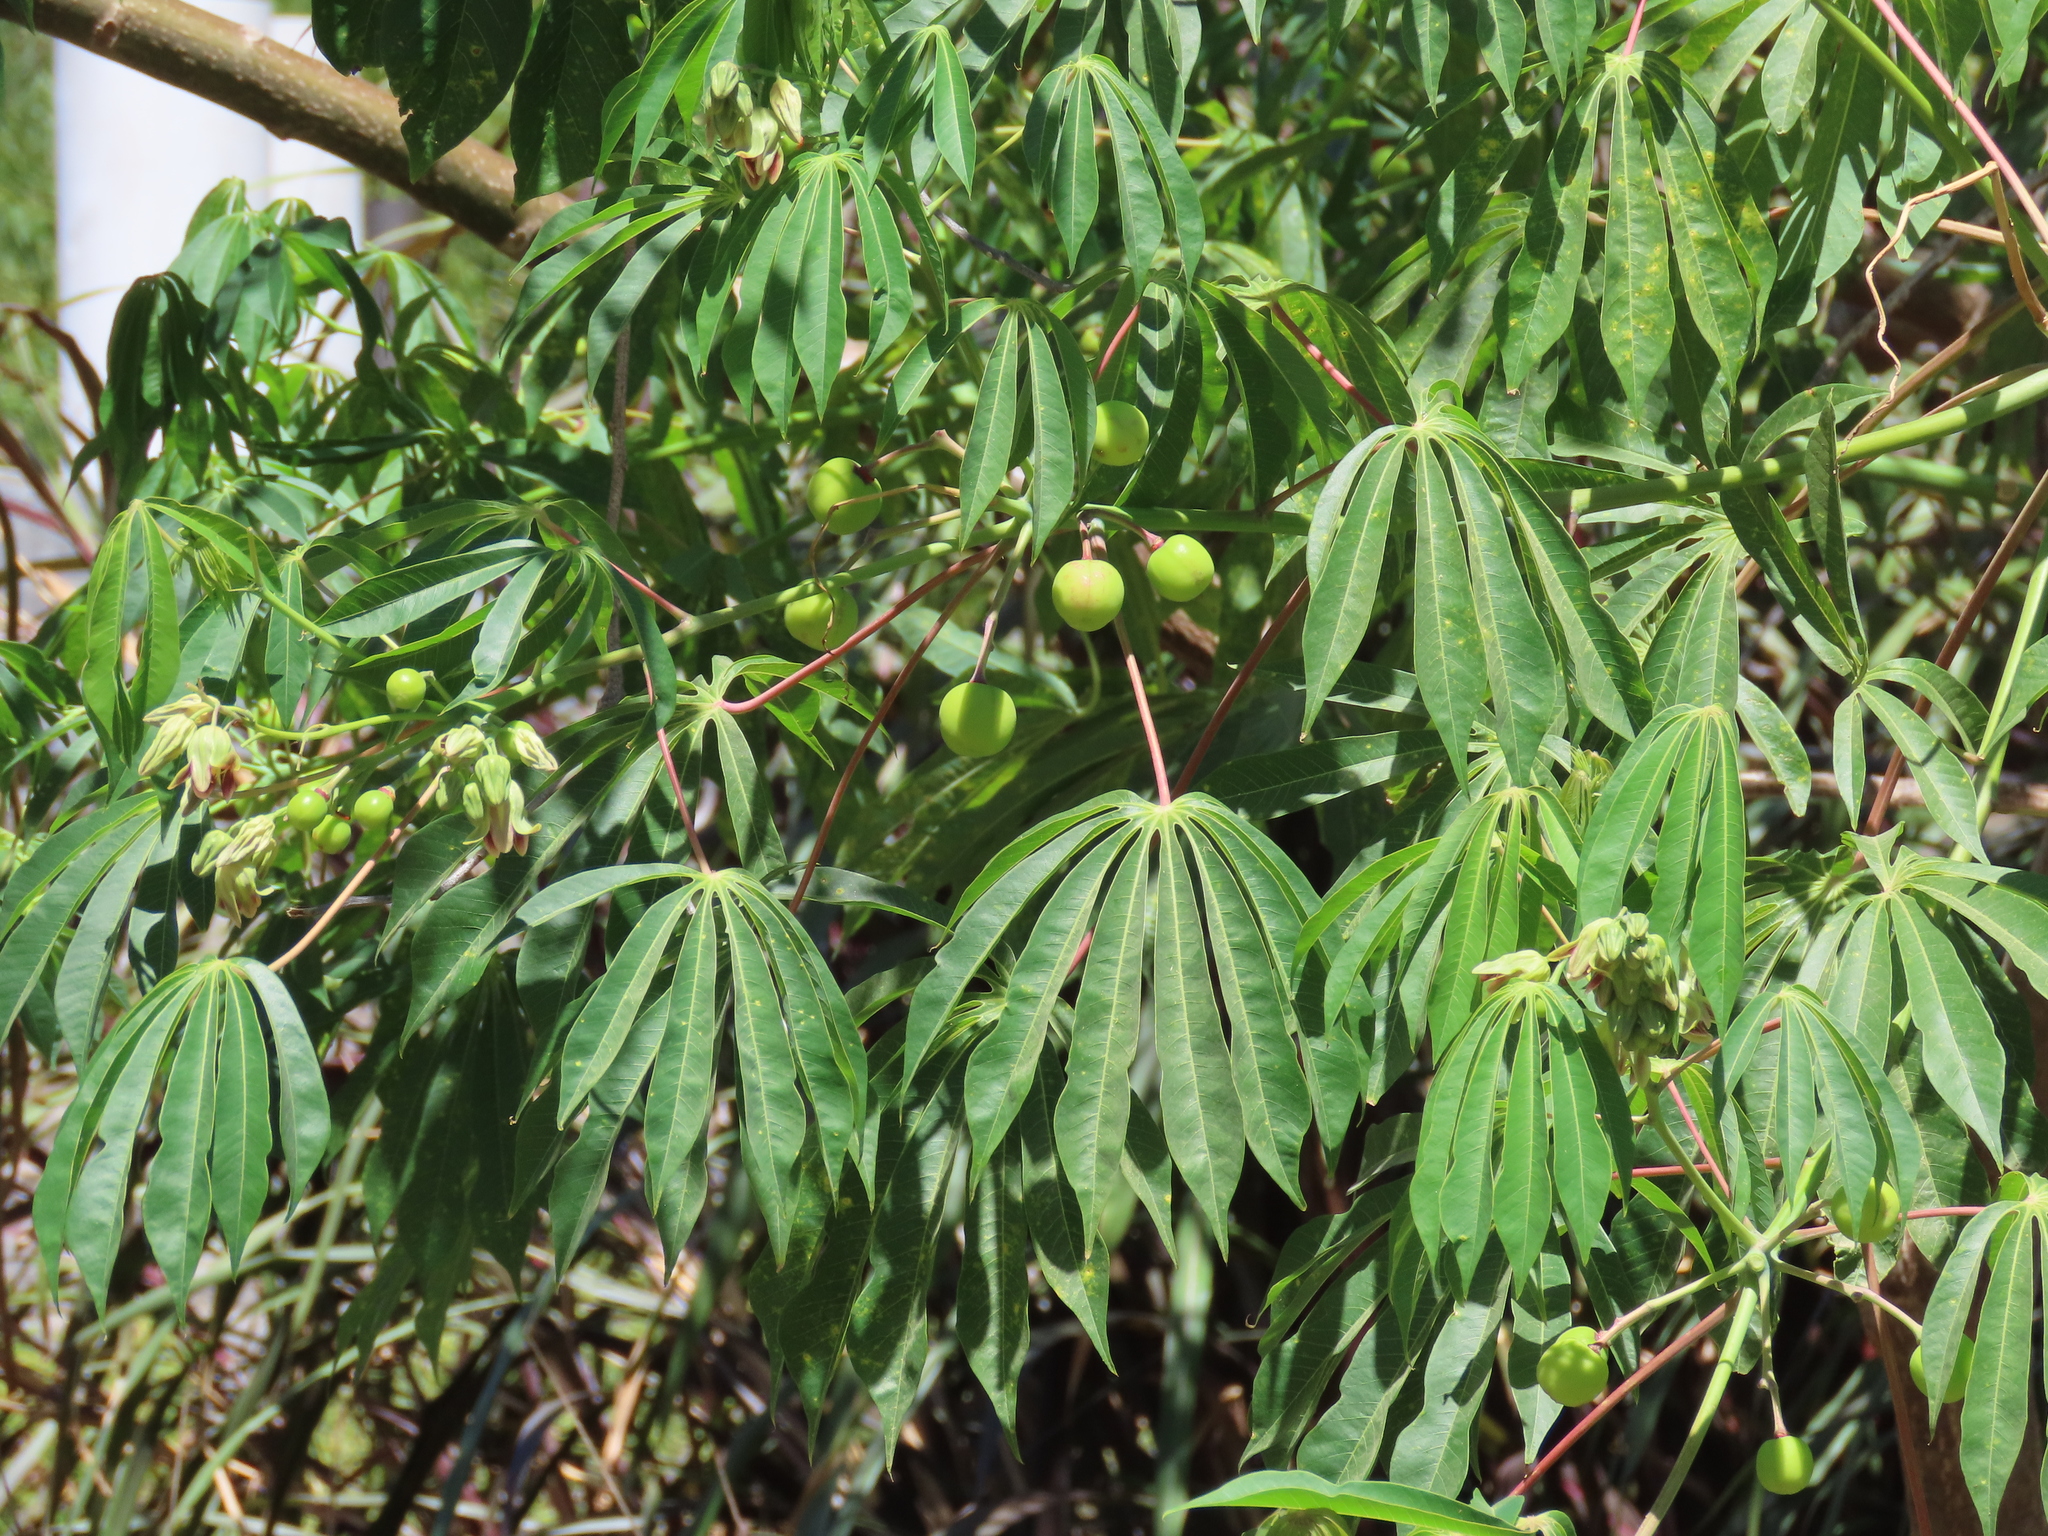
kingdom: Plantae
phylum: Tracheophyta
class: Magnoliopsida
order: Malpighiales
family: Euphorbiaceae
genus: Manihot
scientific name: Manihot grahamii
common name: Graham's manihot
